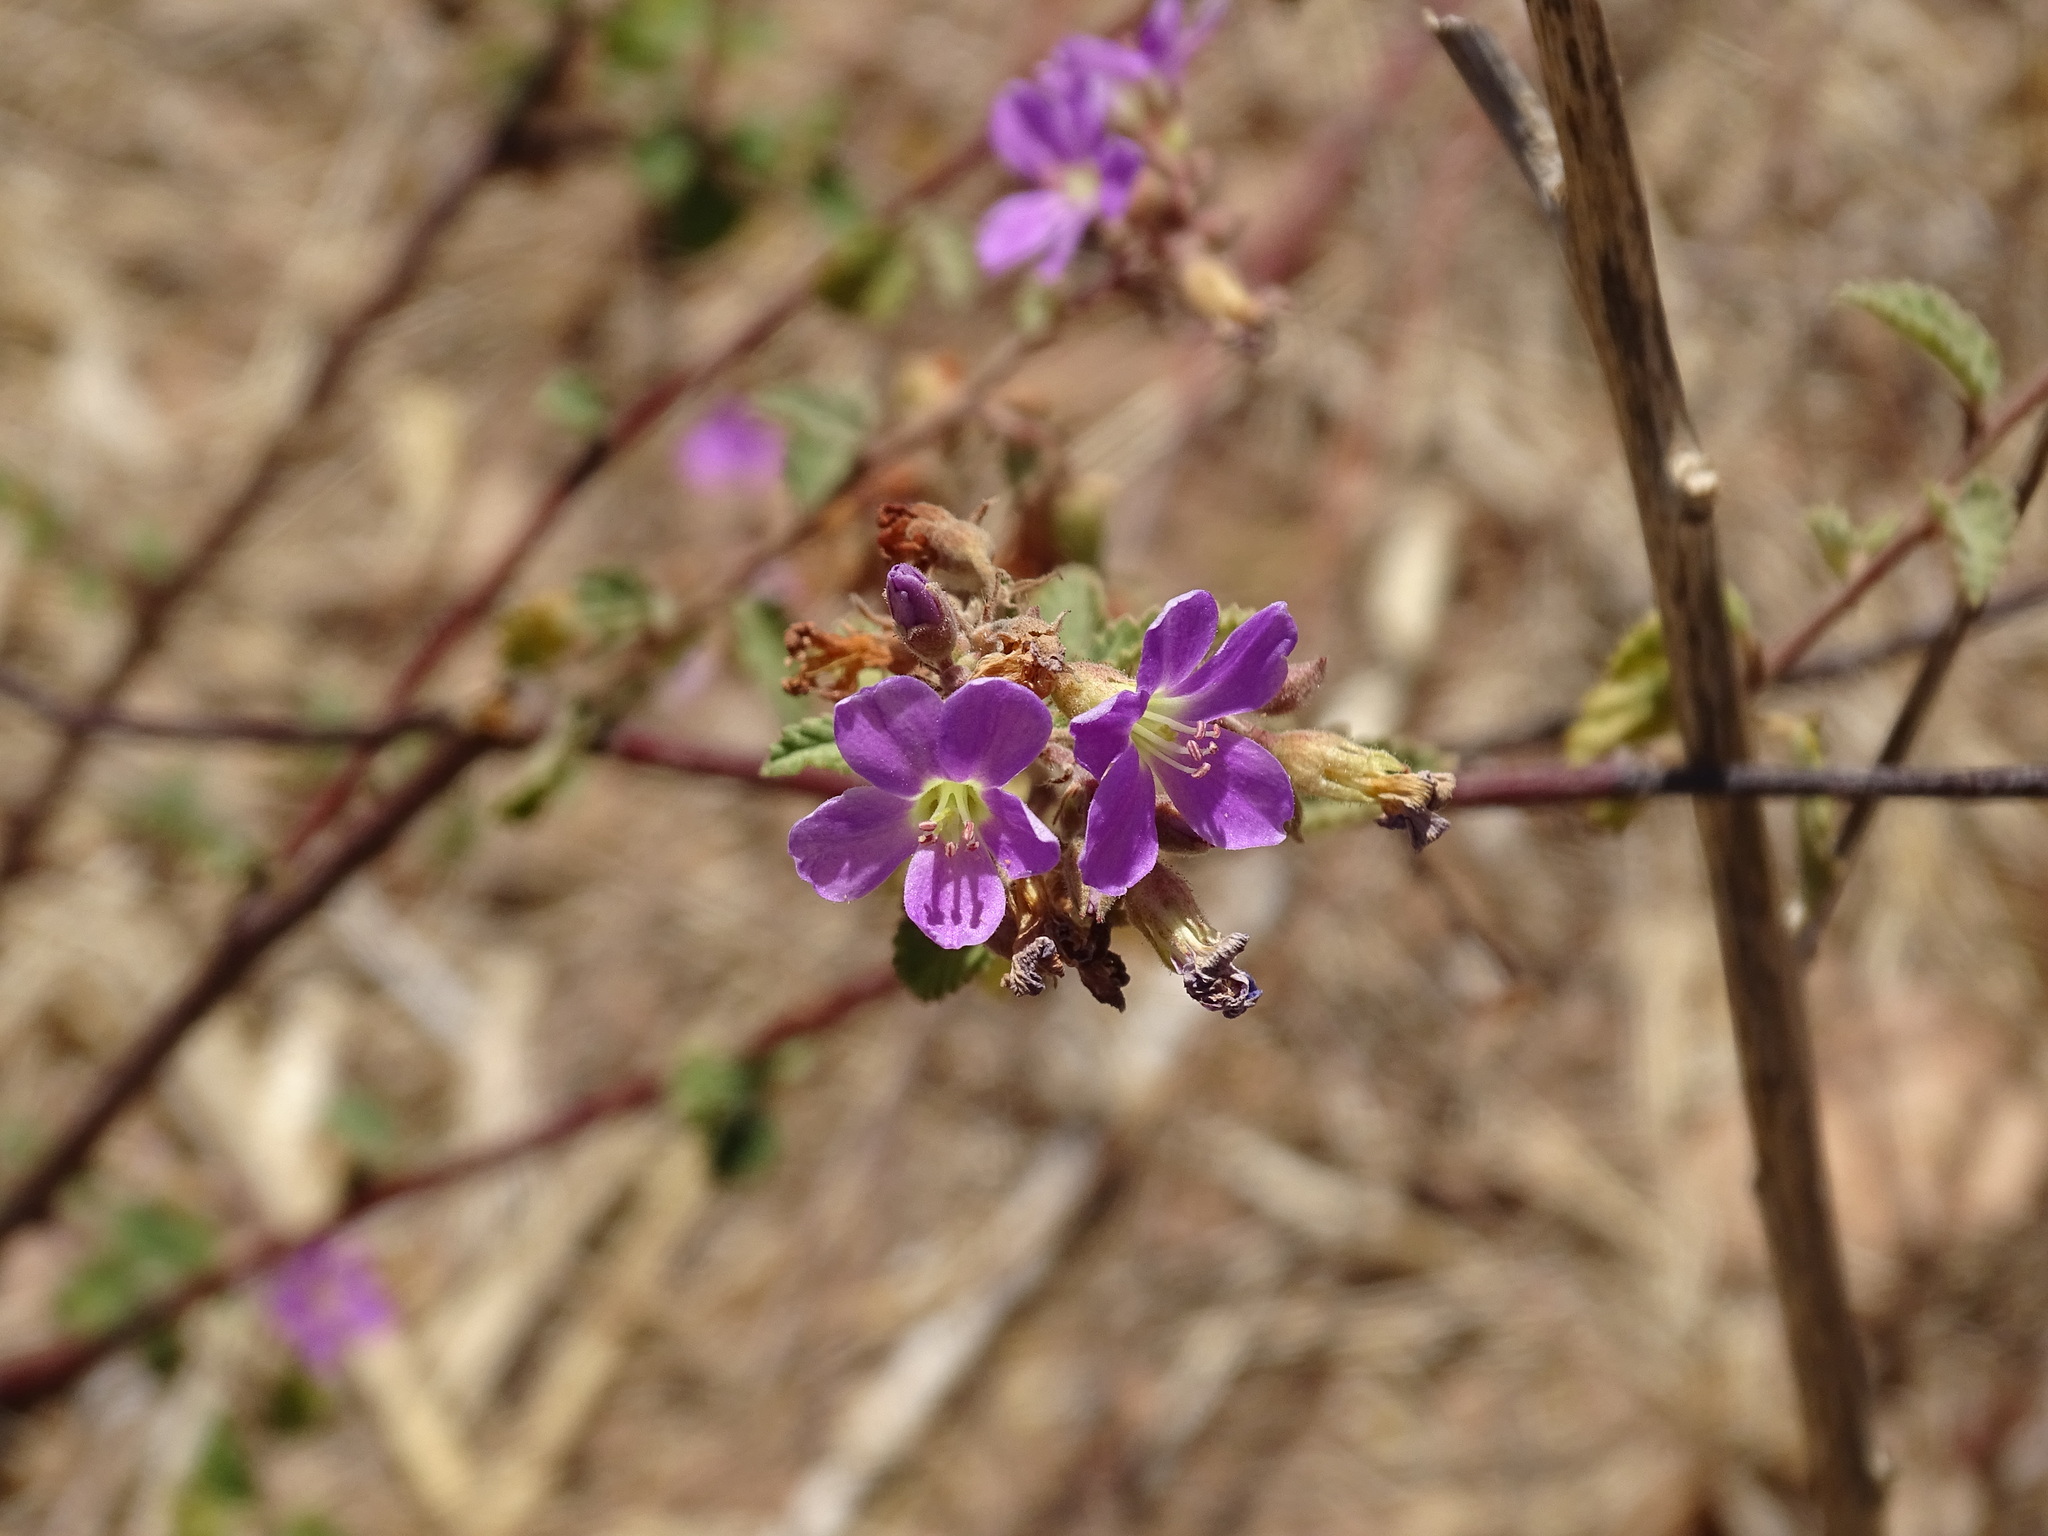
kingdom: Plantae
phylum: Tracheophyta
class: Magnoliopsida
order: Malvales
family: Malvaceae
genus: Melochia
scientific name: Melochia tomentosa
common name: Black torch
